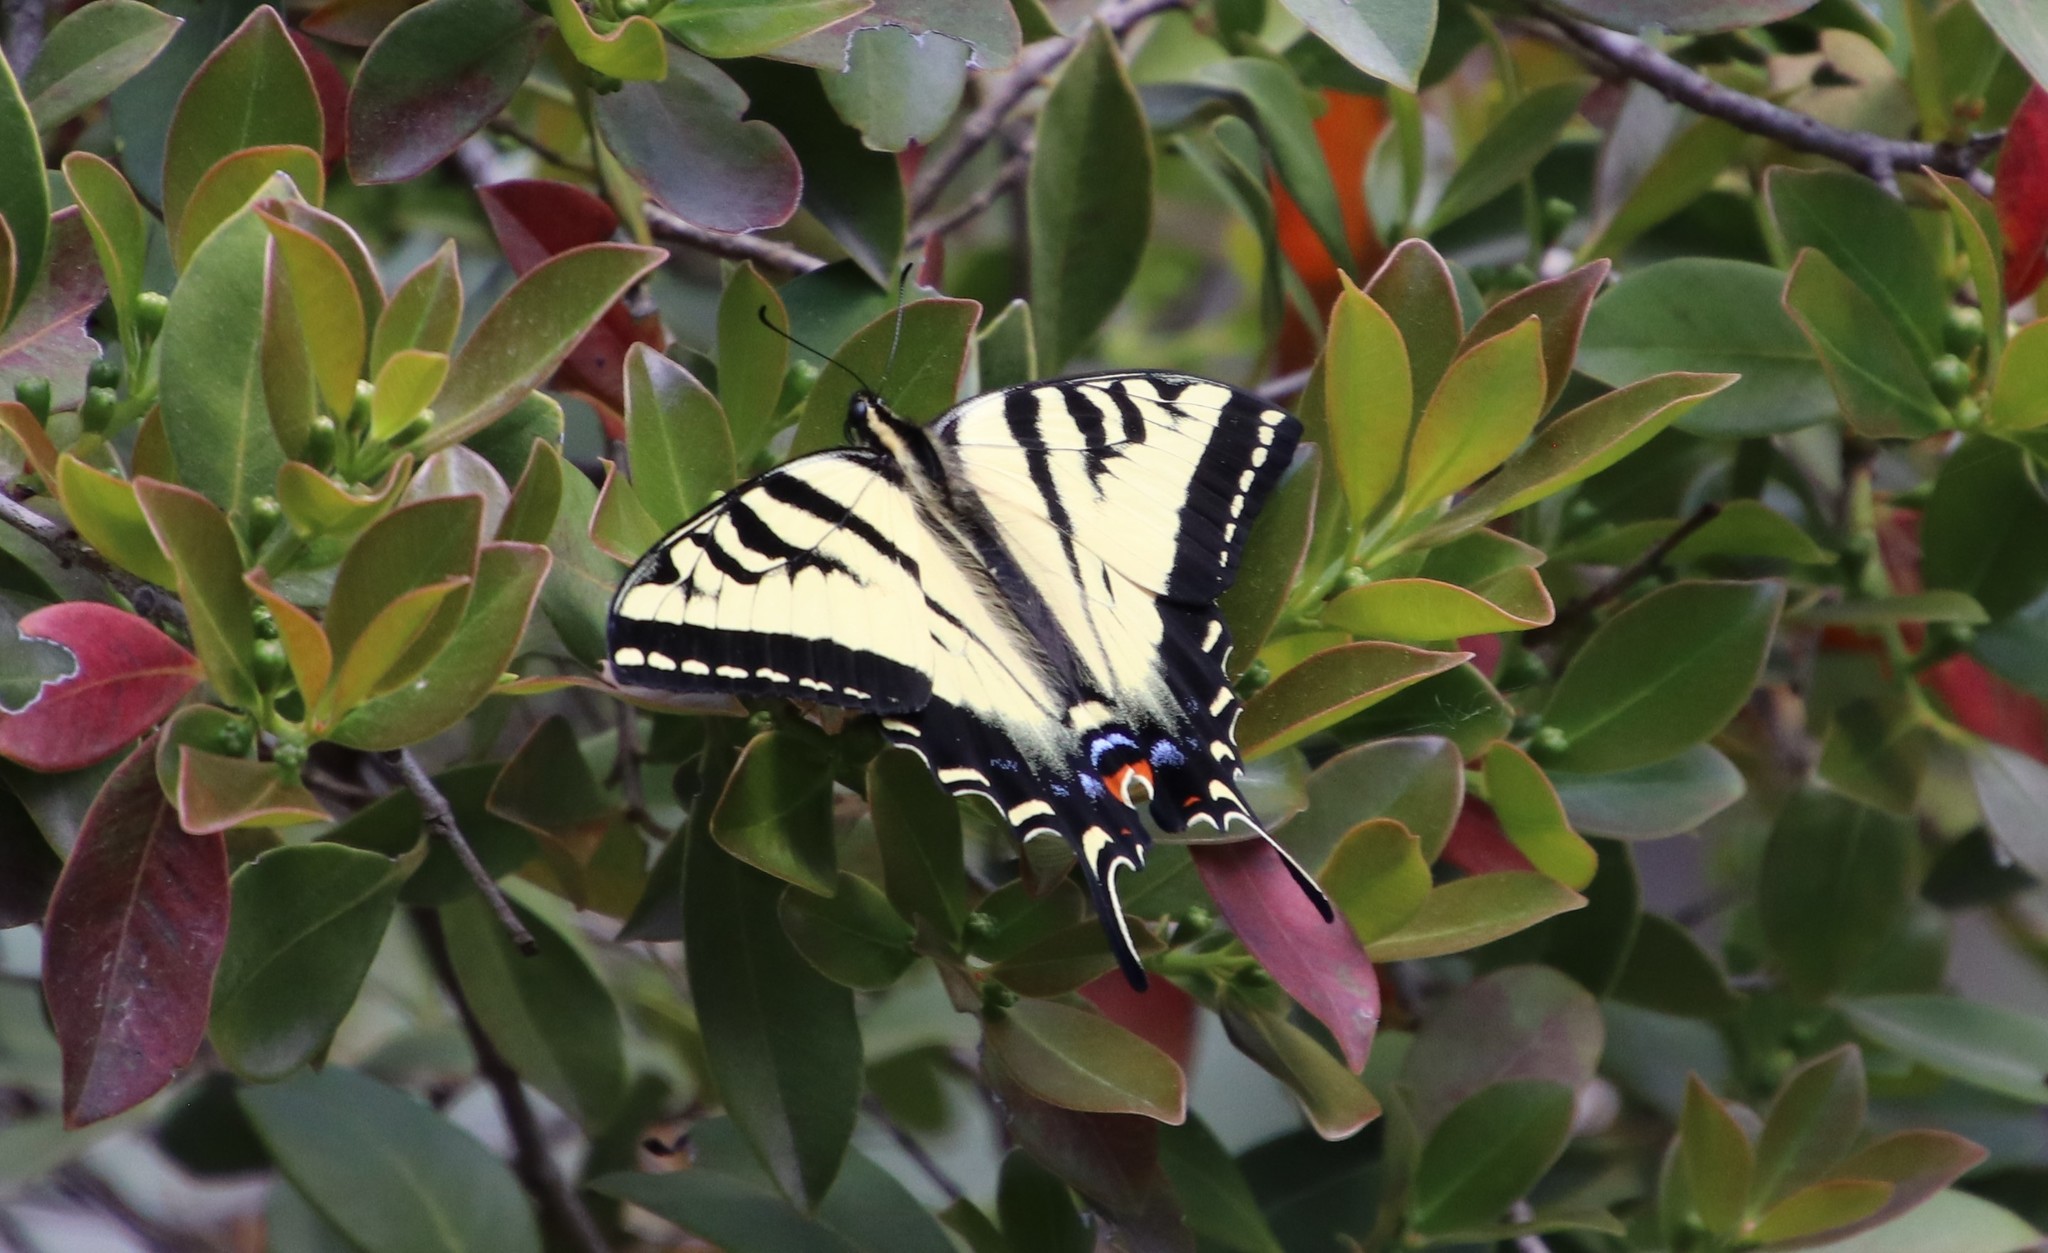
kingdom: Animalia
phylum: Arthropoda
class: Insecta
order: Lepidoptera
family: Papilionidae
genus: Papilio
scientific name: Papilio rutulus
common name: Western tiger swallowtail
